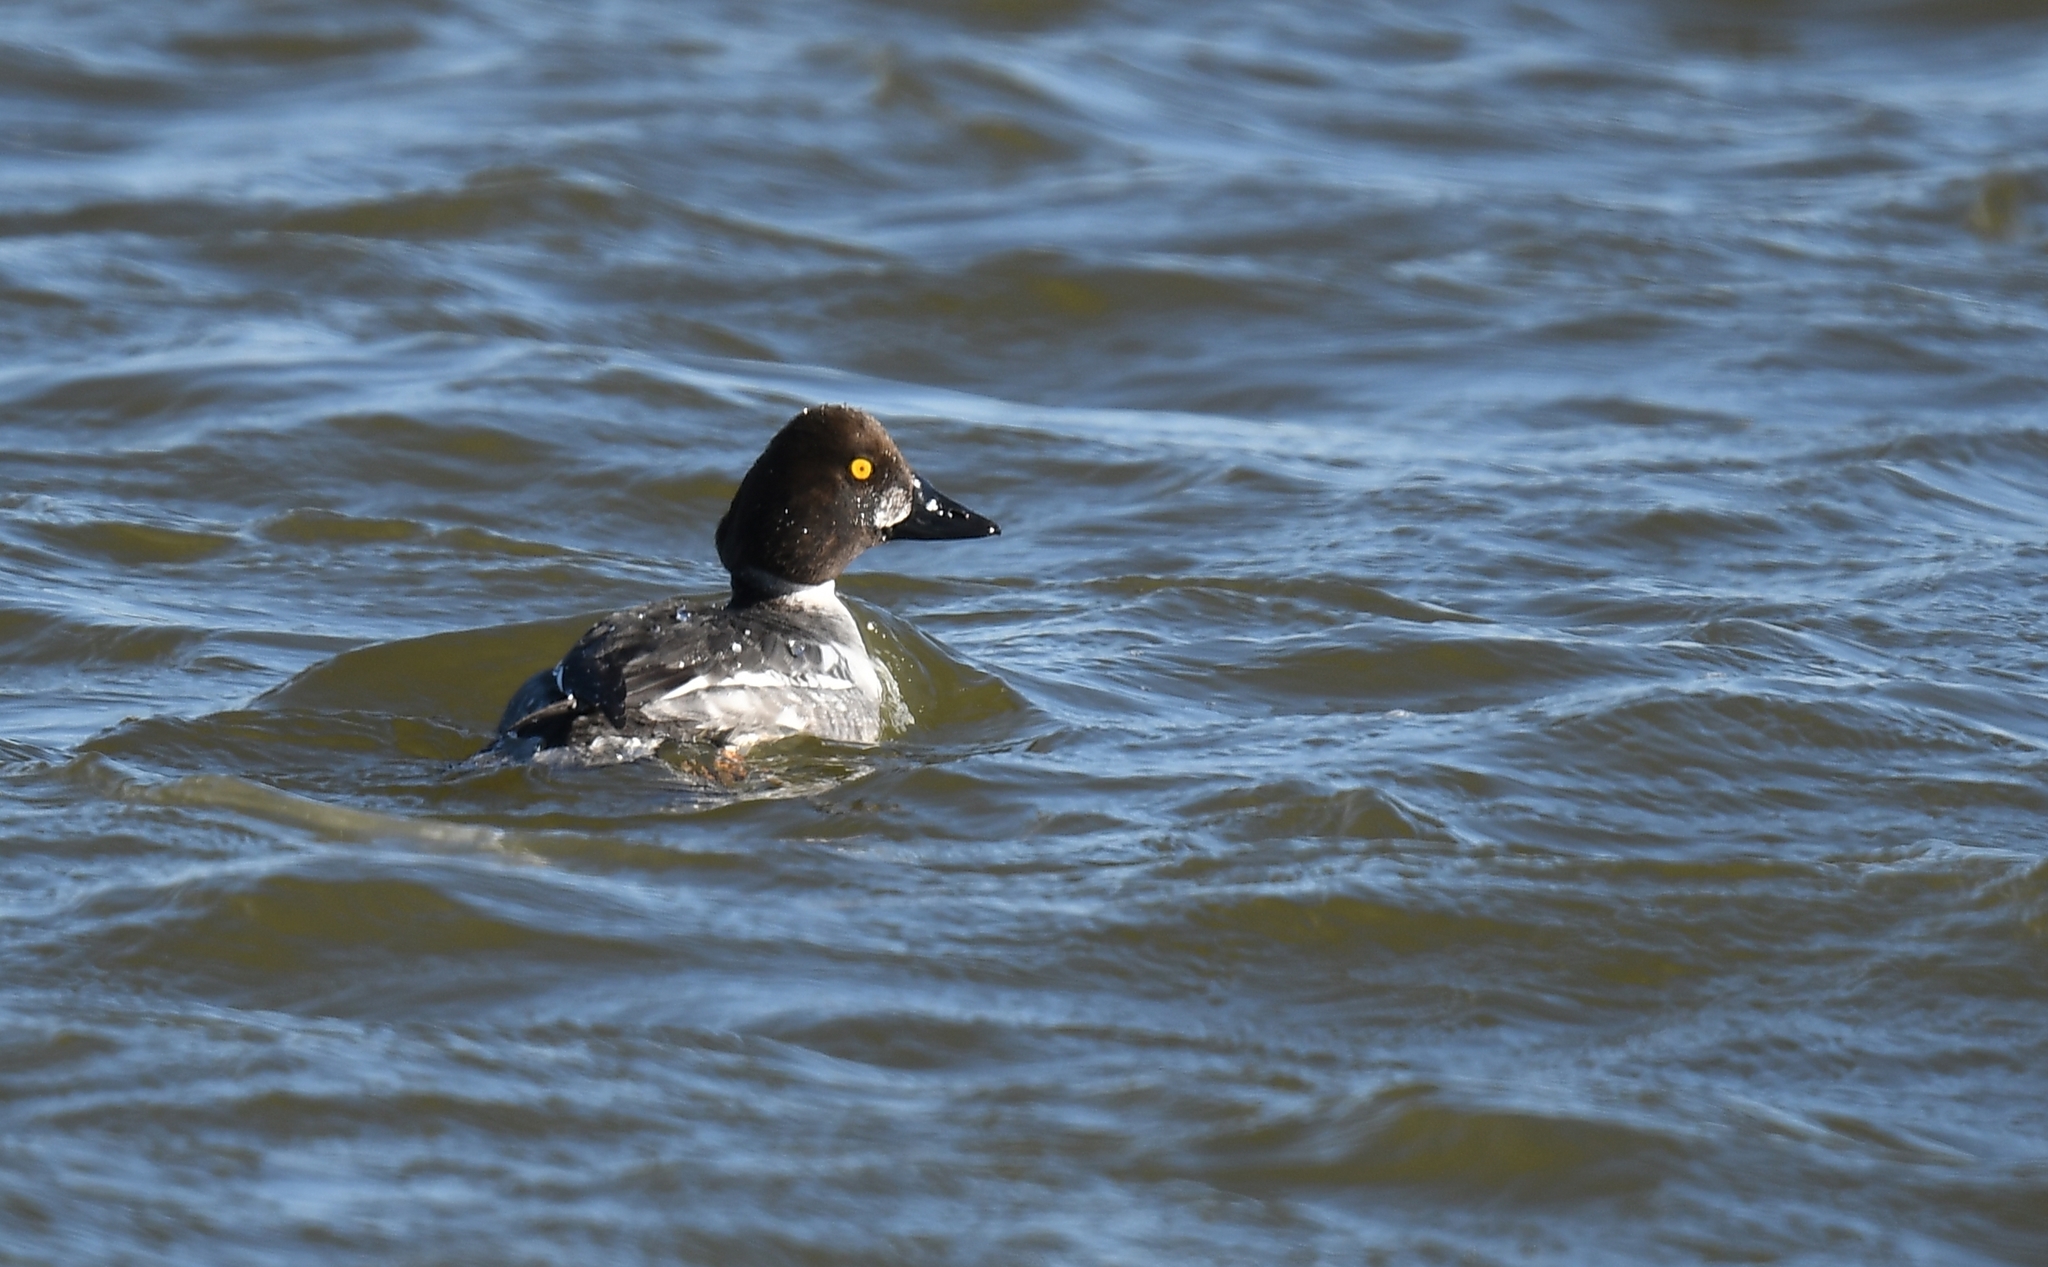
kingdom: Animalia
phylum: Chordata
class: Aves
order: Anseriformes
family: Anatidae
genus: Bucephala
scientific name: Bucephala clangula
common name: Common goldeneye
